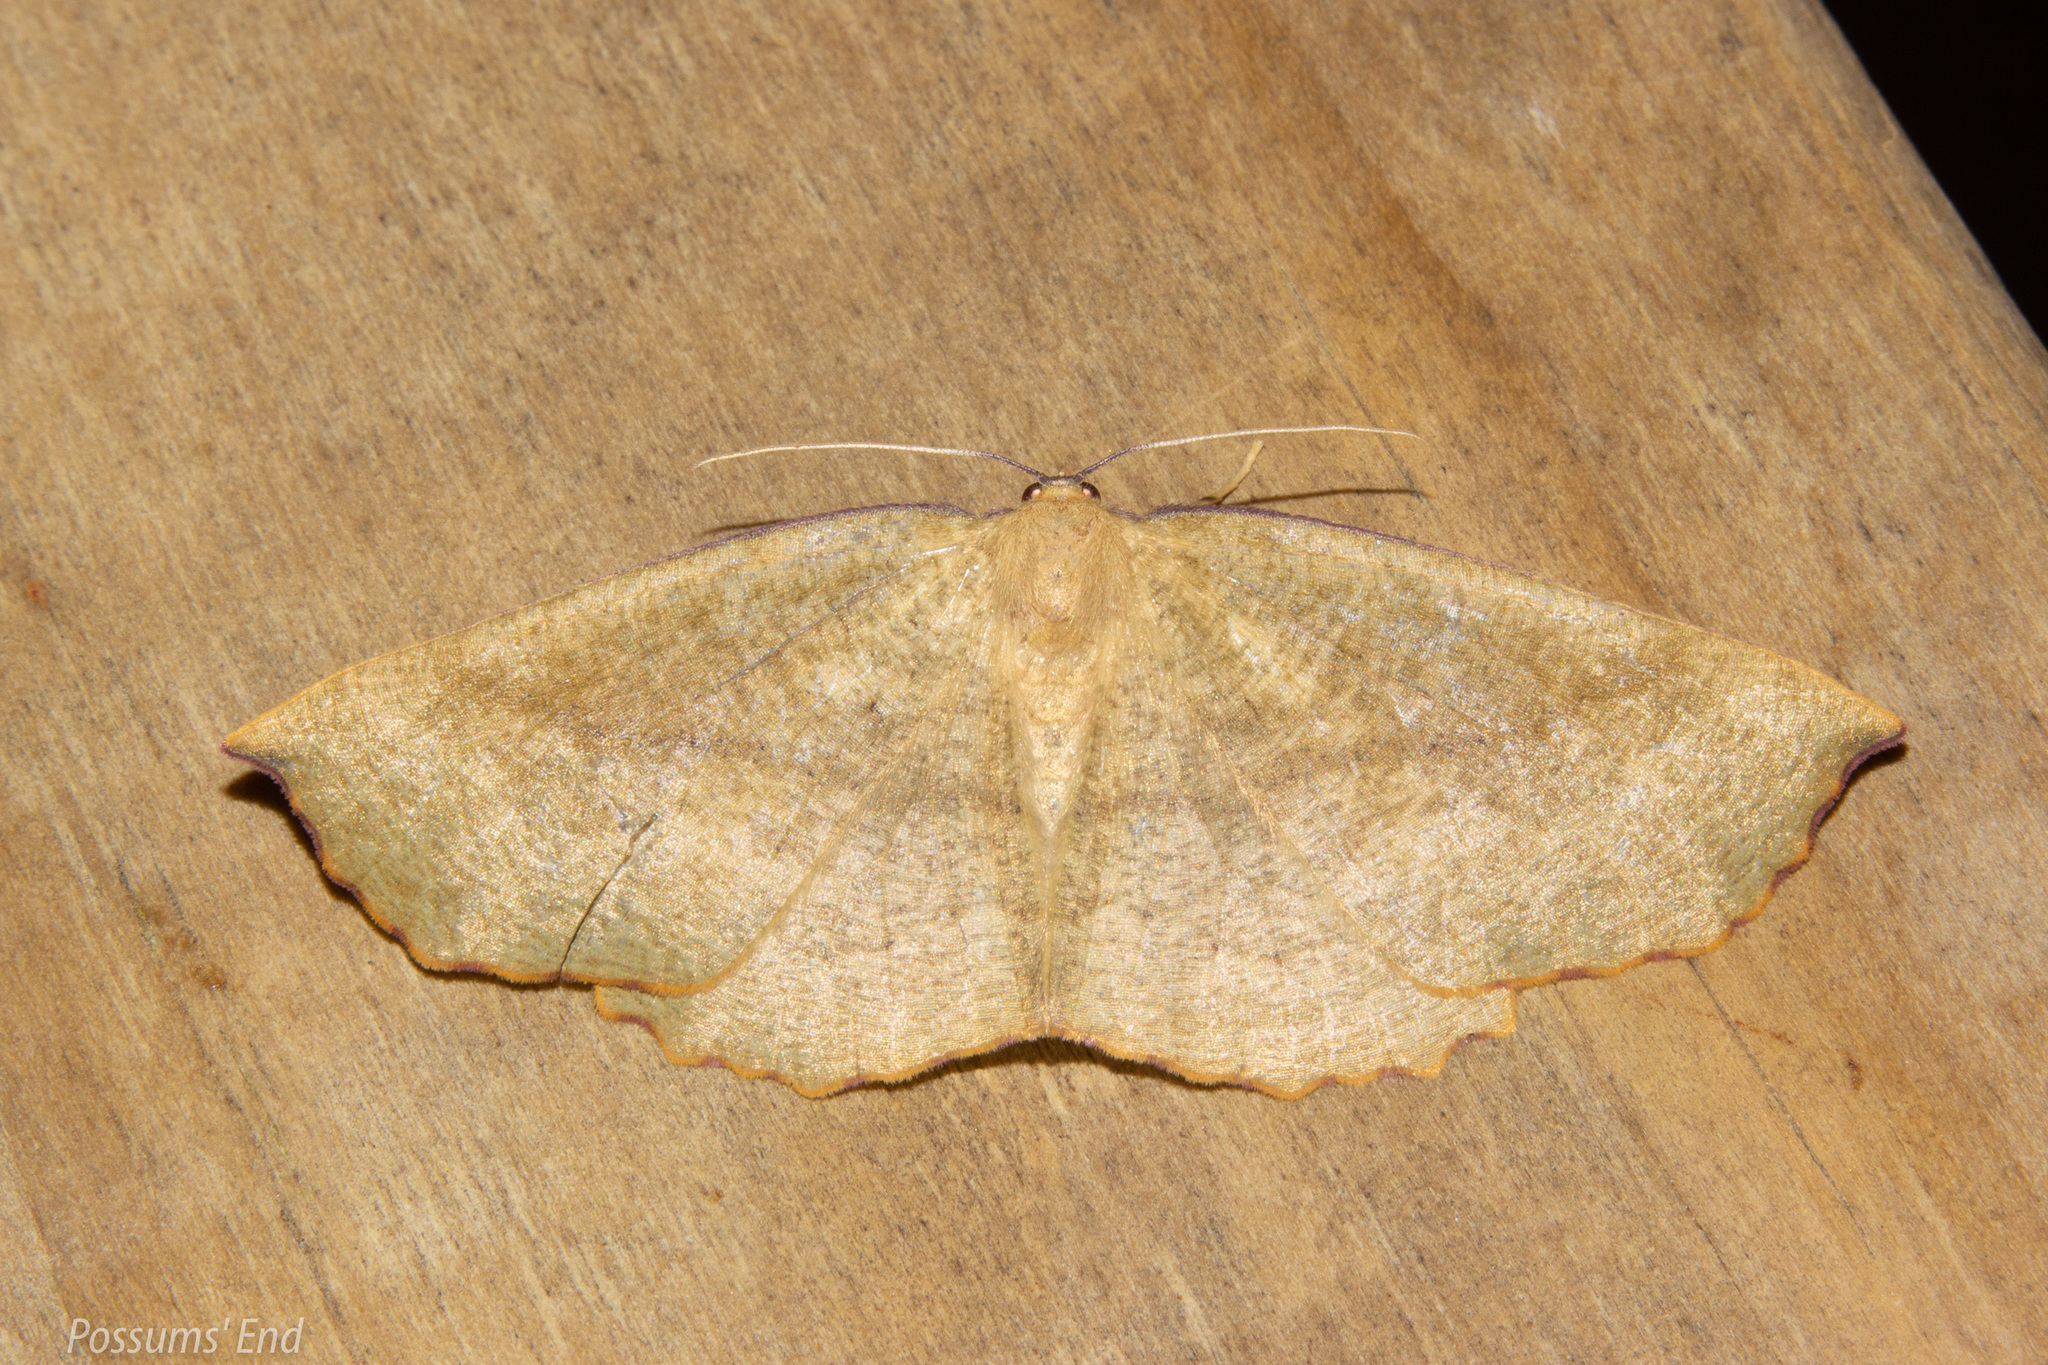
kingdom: Animalia
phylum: Arthropoda
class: Insecta
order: Lepidoptera
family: Geometridae
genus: Xyridacma
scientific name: Xyridacma alectoraria
